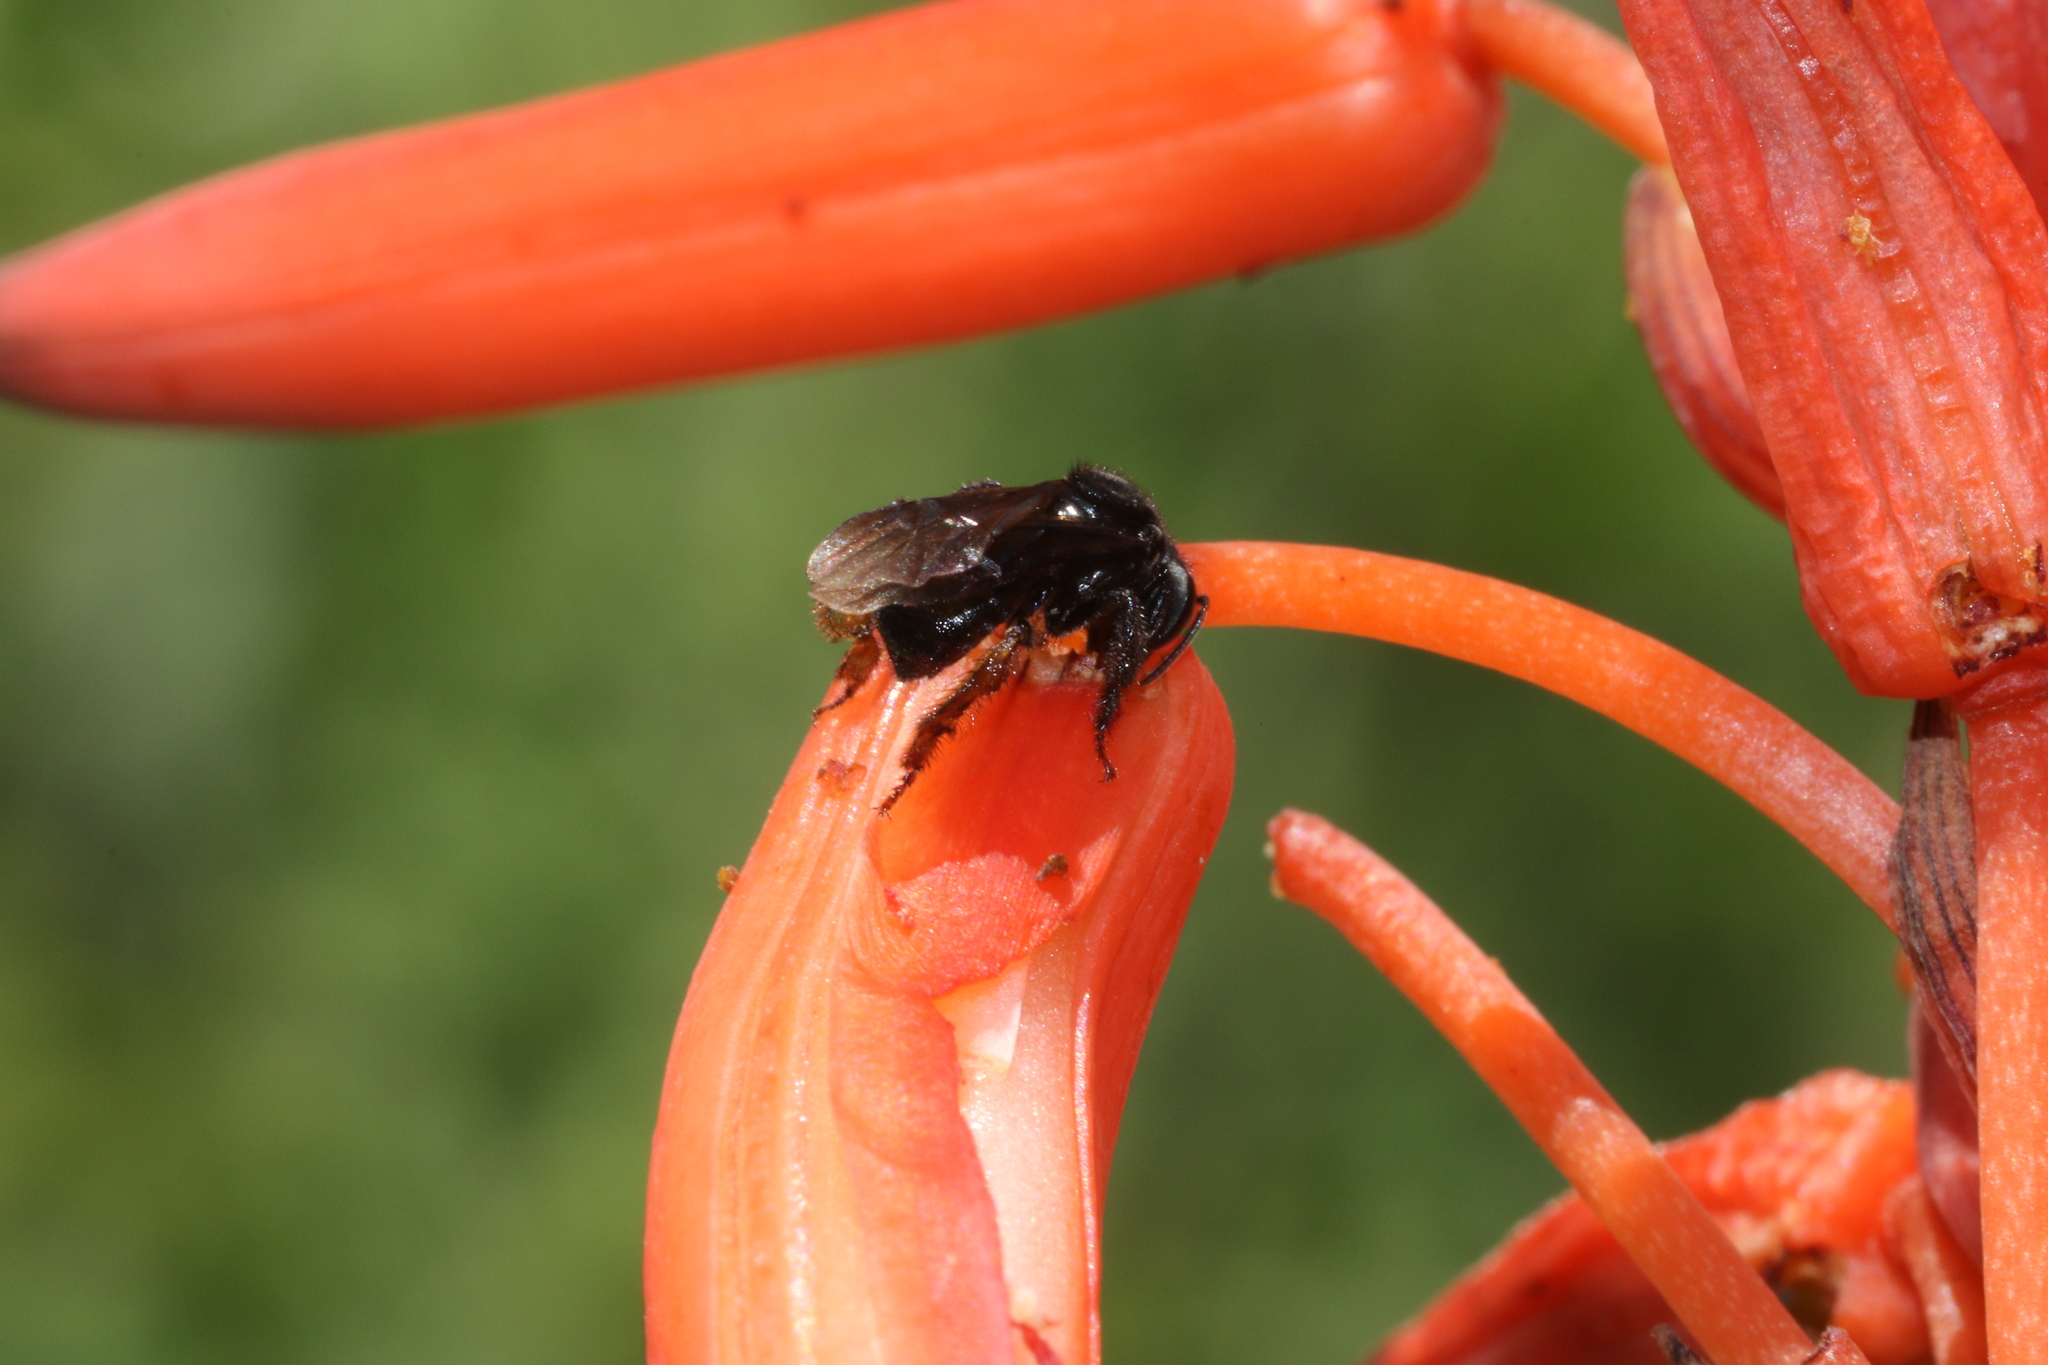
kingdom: Animalia
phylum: Arthropoda
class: Insecta
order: Hymenoptera
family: Apidae
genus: Trigona
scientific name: Trigona spinipes
